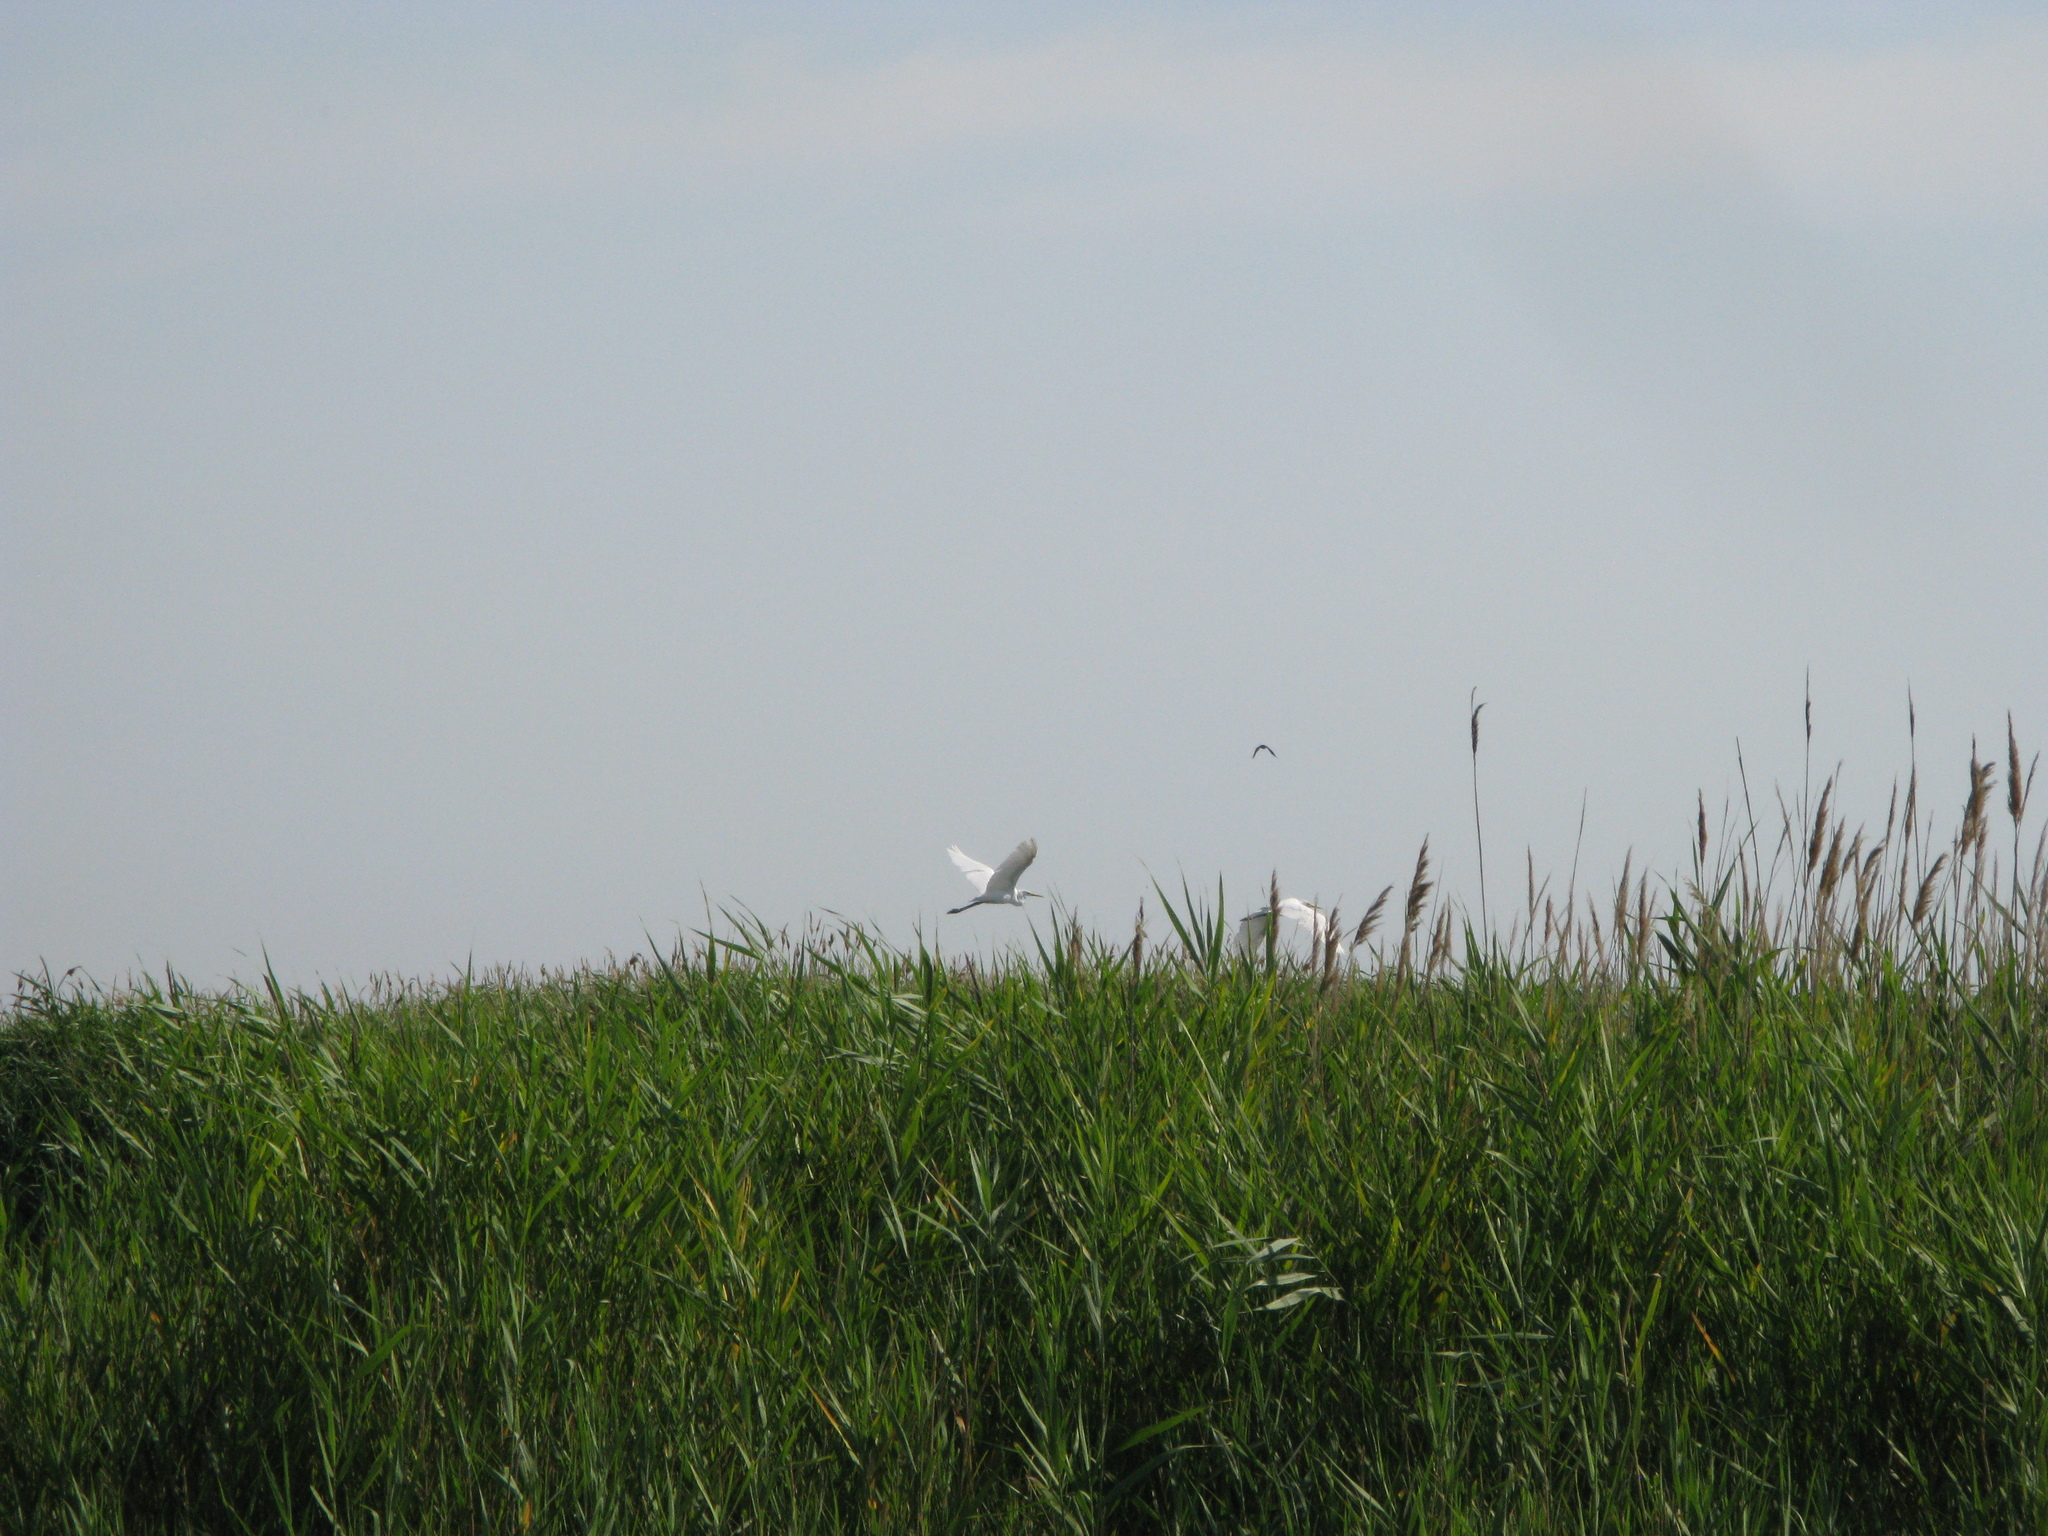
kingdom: Animalia
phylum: Chordata
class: Aves
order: Pelecaniformes
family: Ardeidae
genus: Ardea
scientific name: Ardea alba
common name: Great egret
